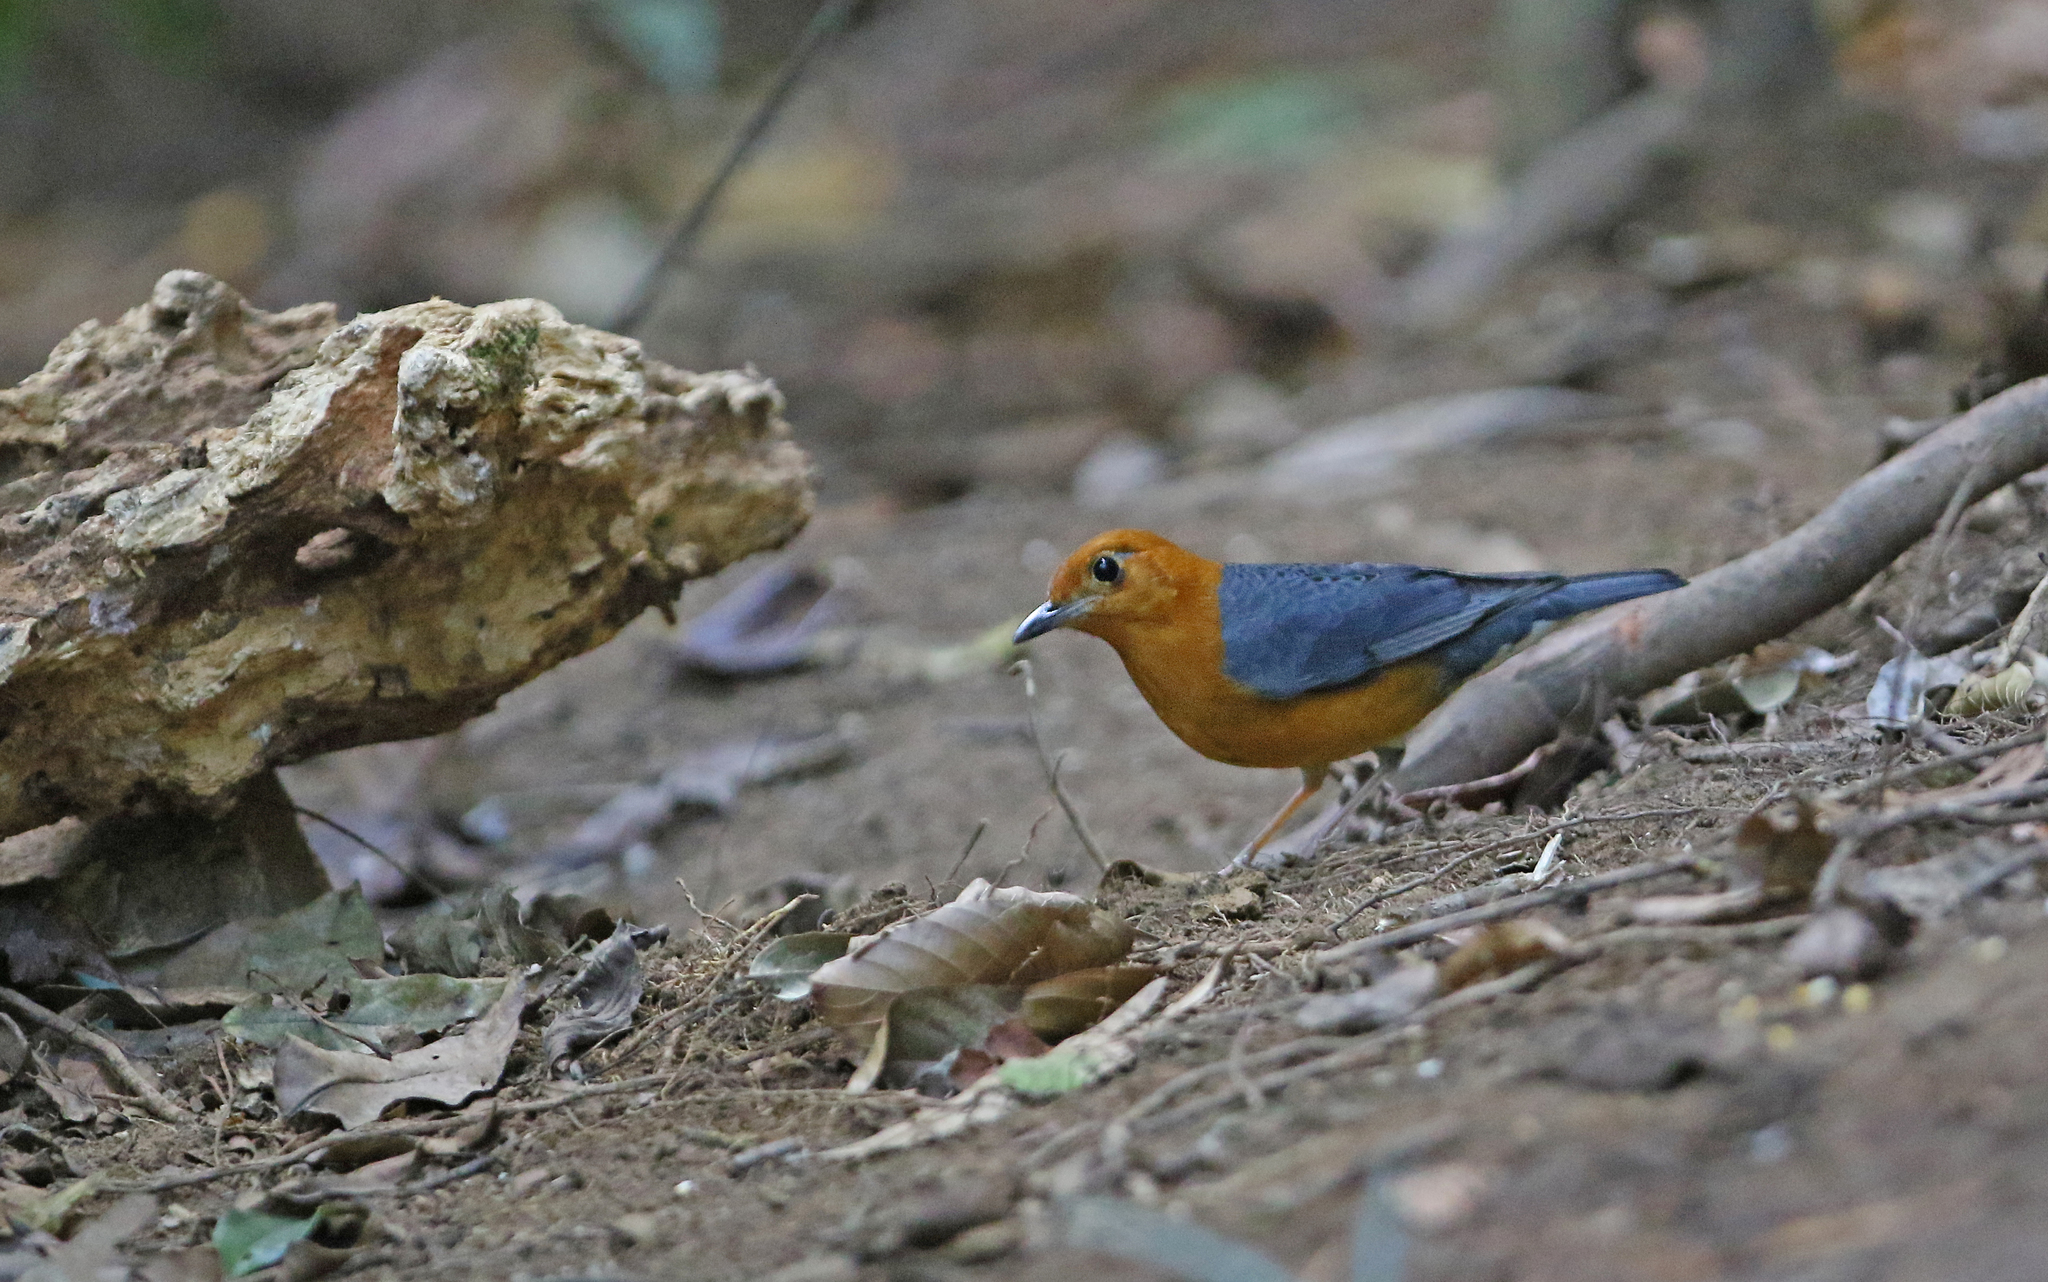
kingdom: Animalia
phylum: Chordata
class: Aves
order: Passeriformes
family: Turdidae
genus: Geokichla
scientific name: Geokichla citrina
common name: Orange-headed thrush
